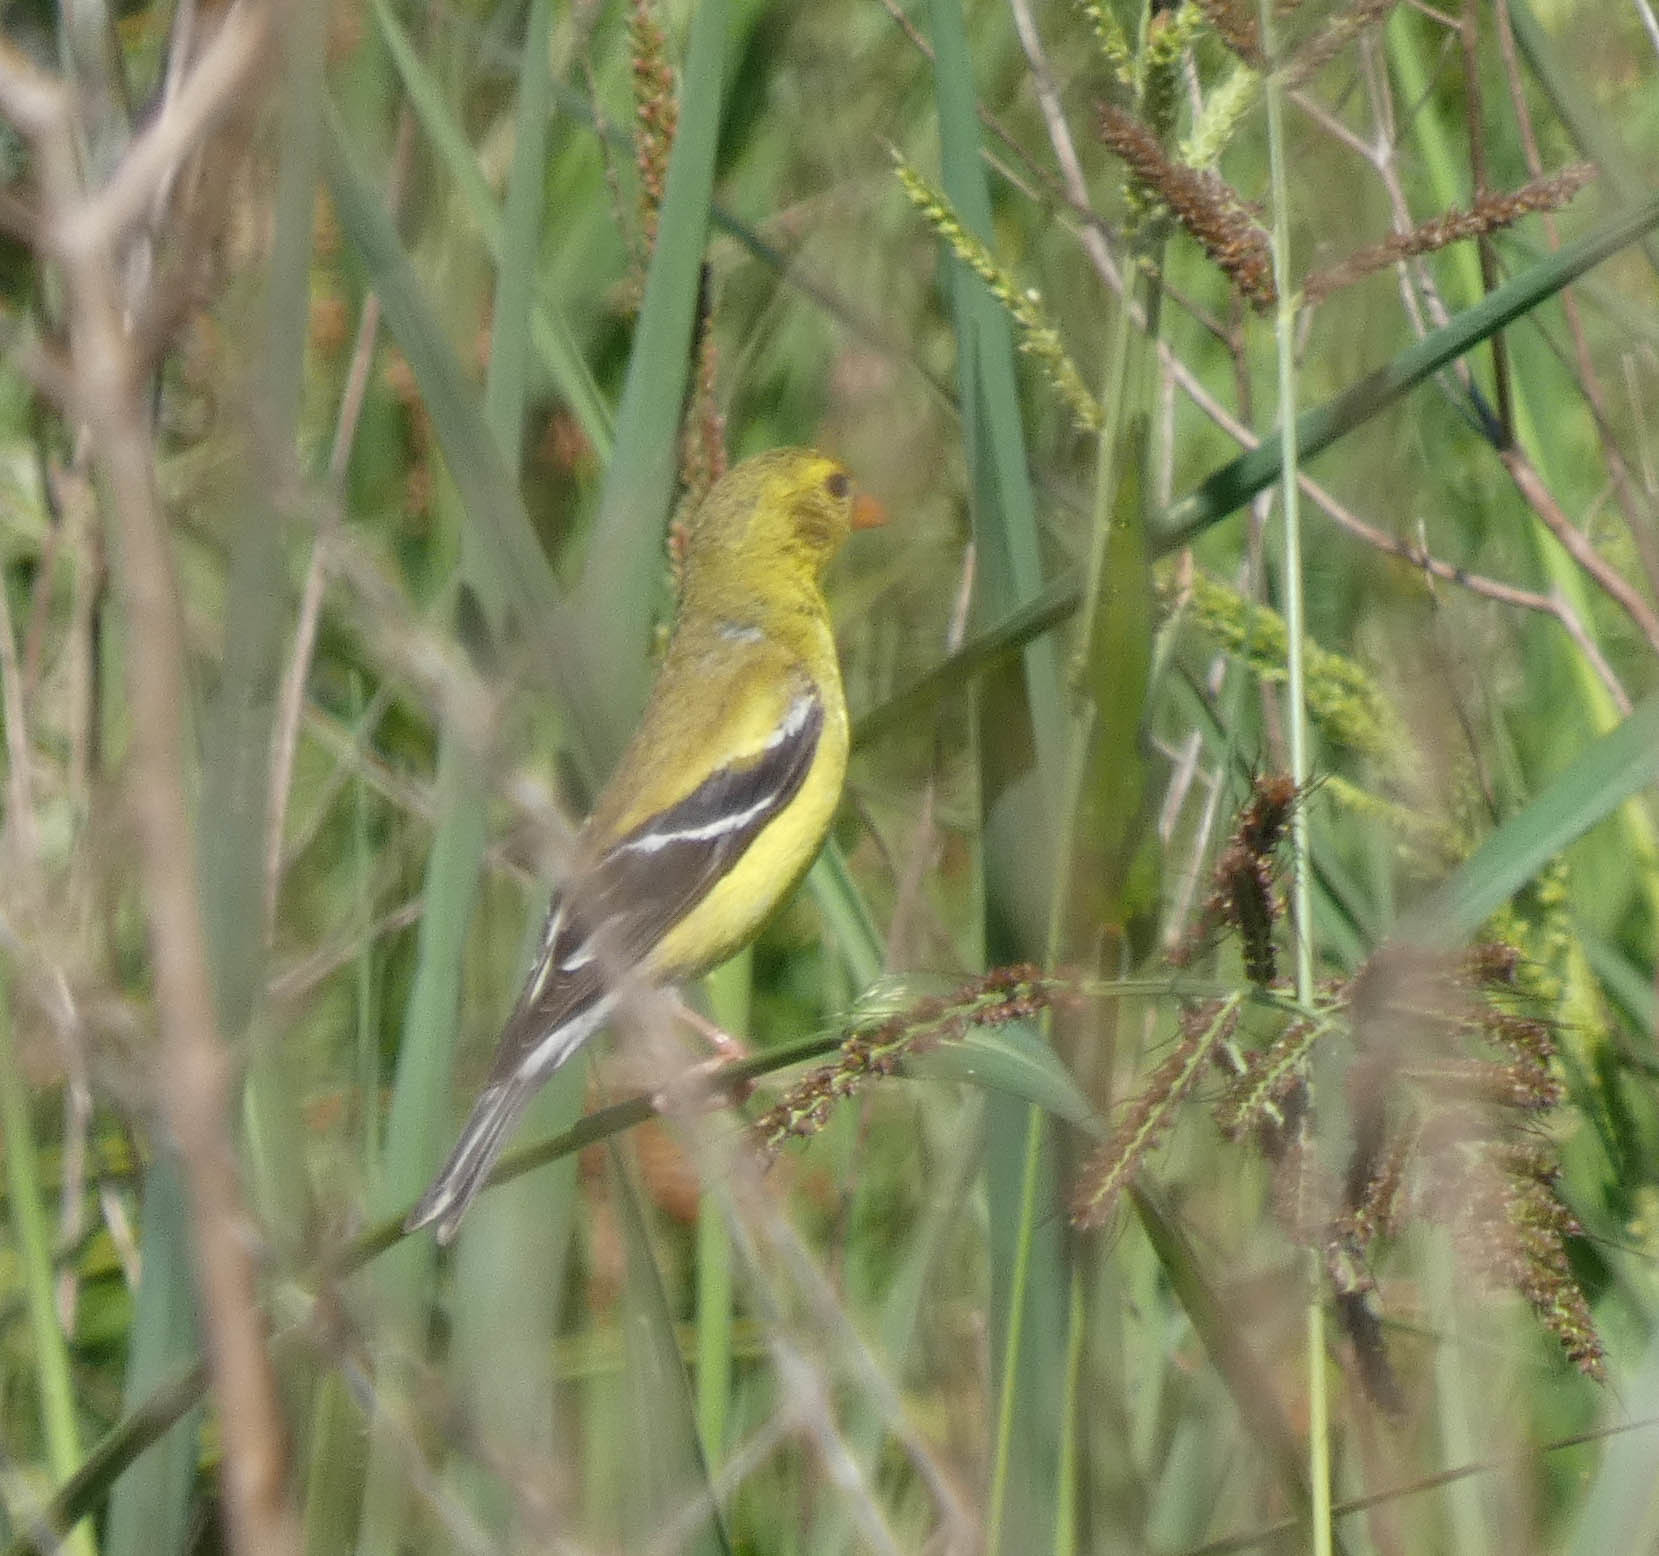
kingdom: Animalia
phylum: Chordata
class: Aves
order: Passeriformes
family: Fringillidae
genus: Spinus
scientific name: Spinus tristis
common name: American goldfinch
